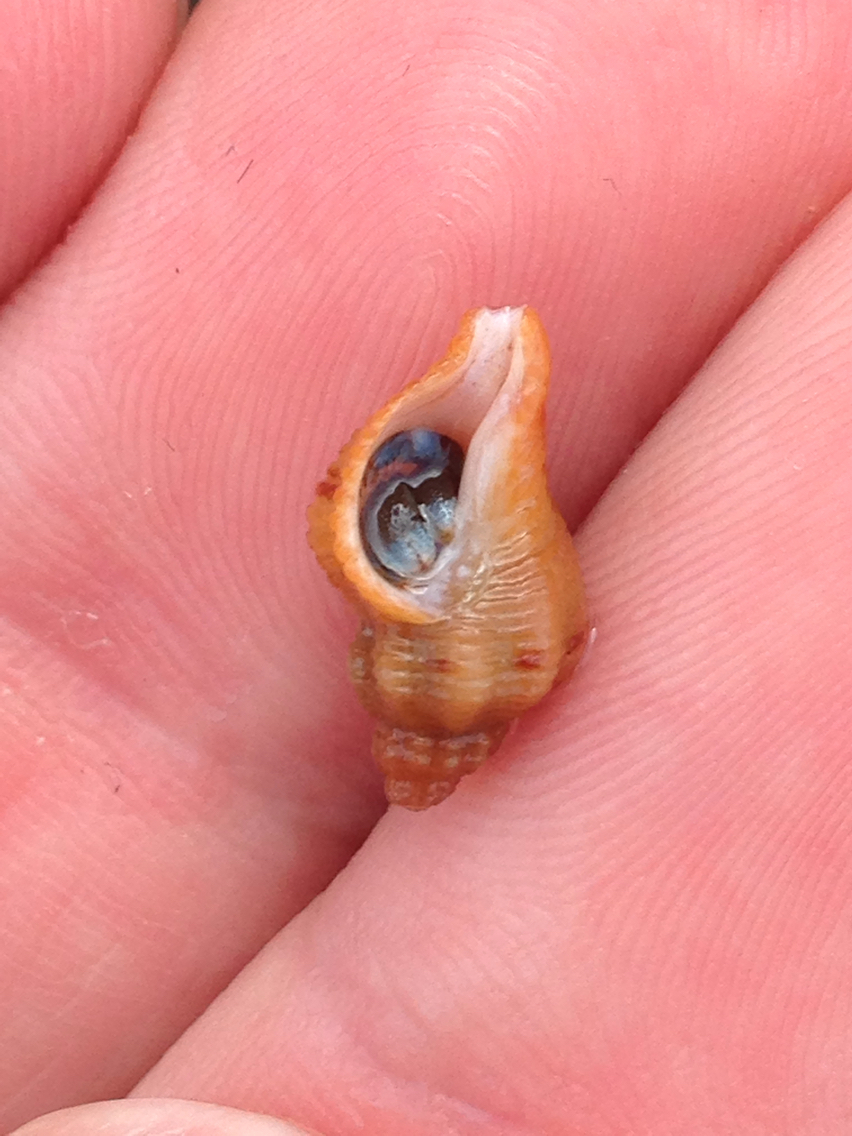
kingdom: Animalia
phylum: Mollusca
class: Gastropoda
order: Neogastropoda
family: Muricidae
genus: Paciocinebrina
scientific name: Paciocinebrina foveolata
